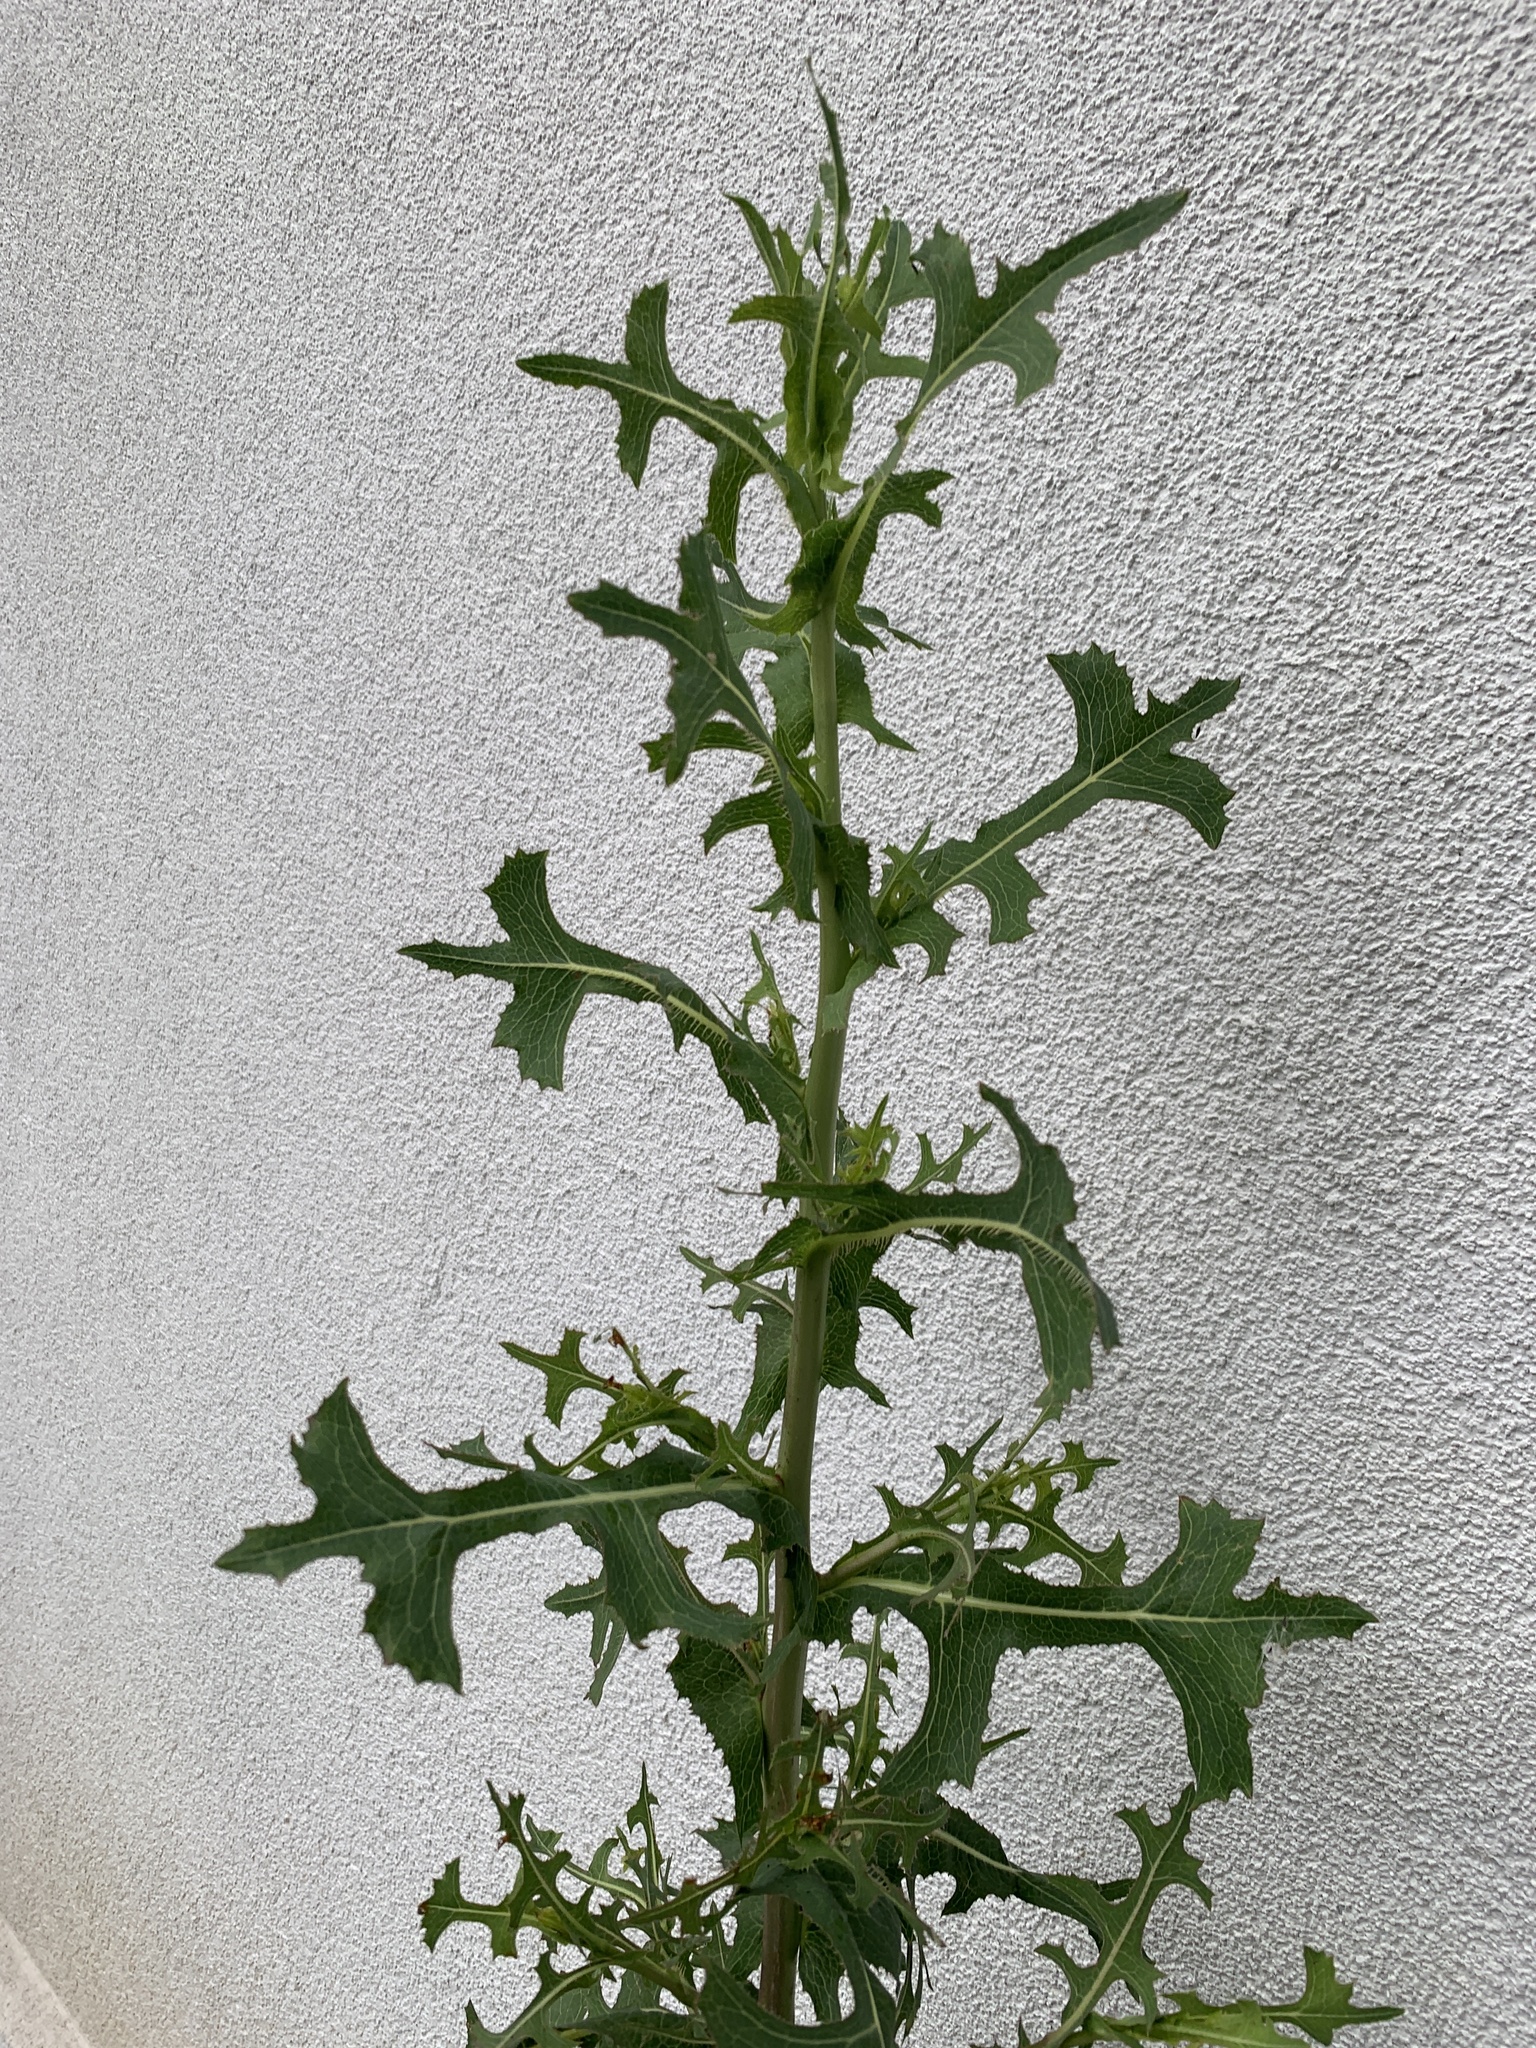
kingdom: Plantae
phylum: Tracheophyta
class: Magnoliopsida
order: Asterales
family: Asteraceae
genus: Lactuca
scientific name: Lactuca serriola
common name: Prickly lettuce
